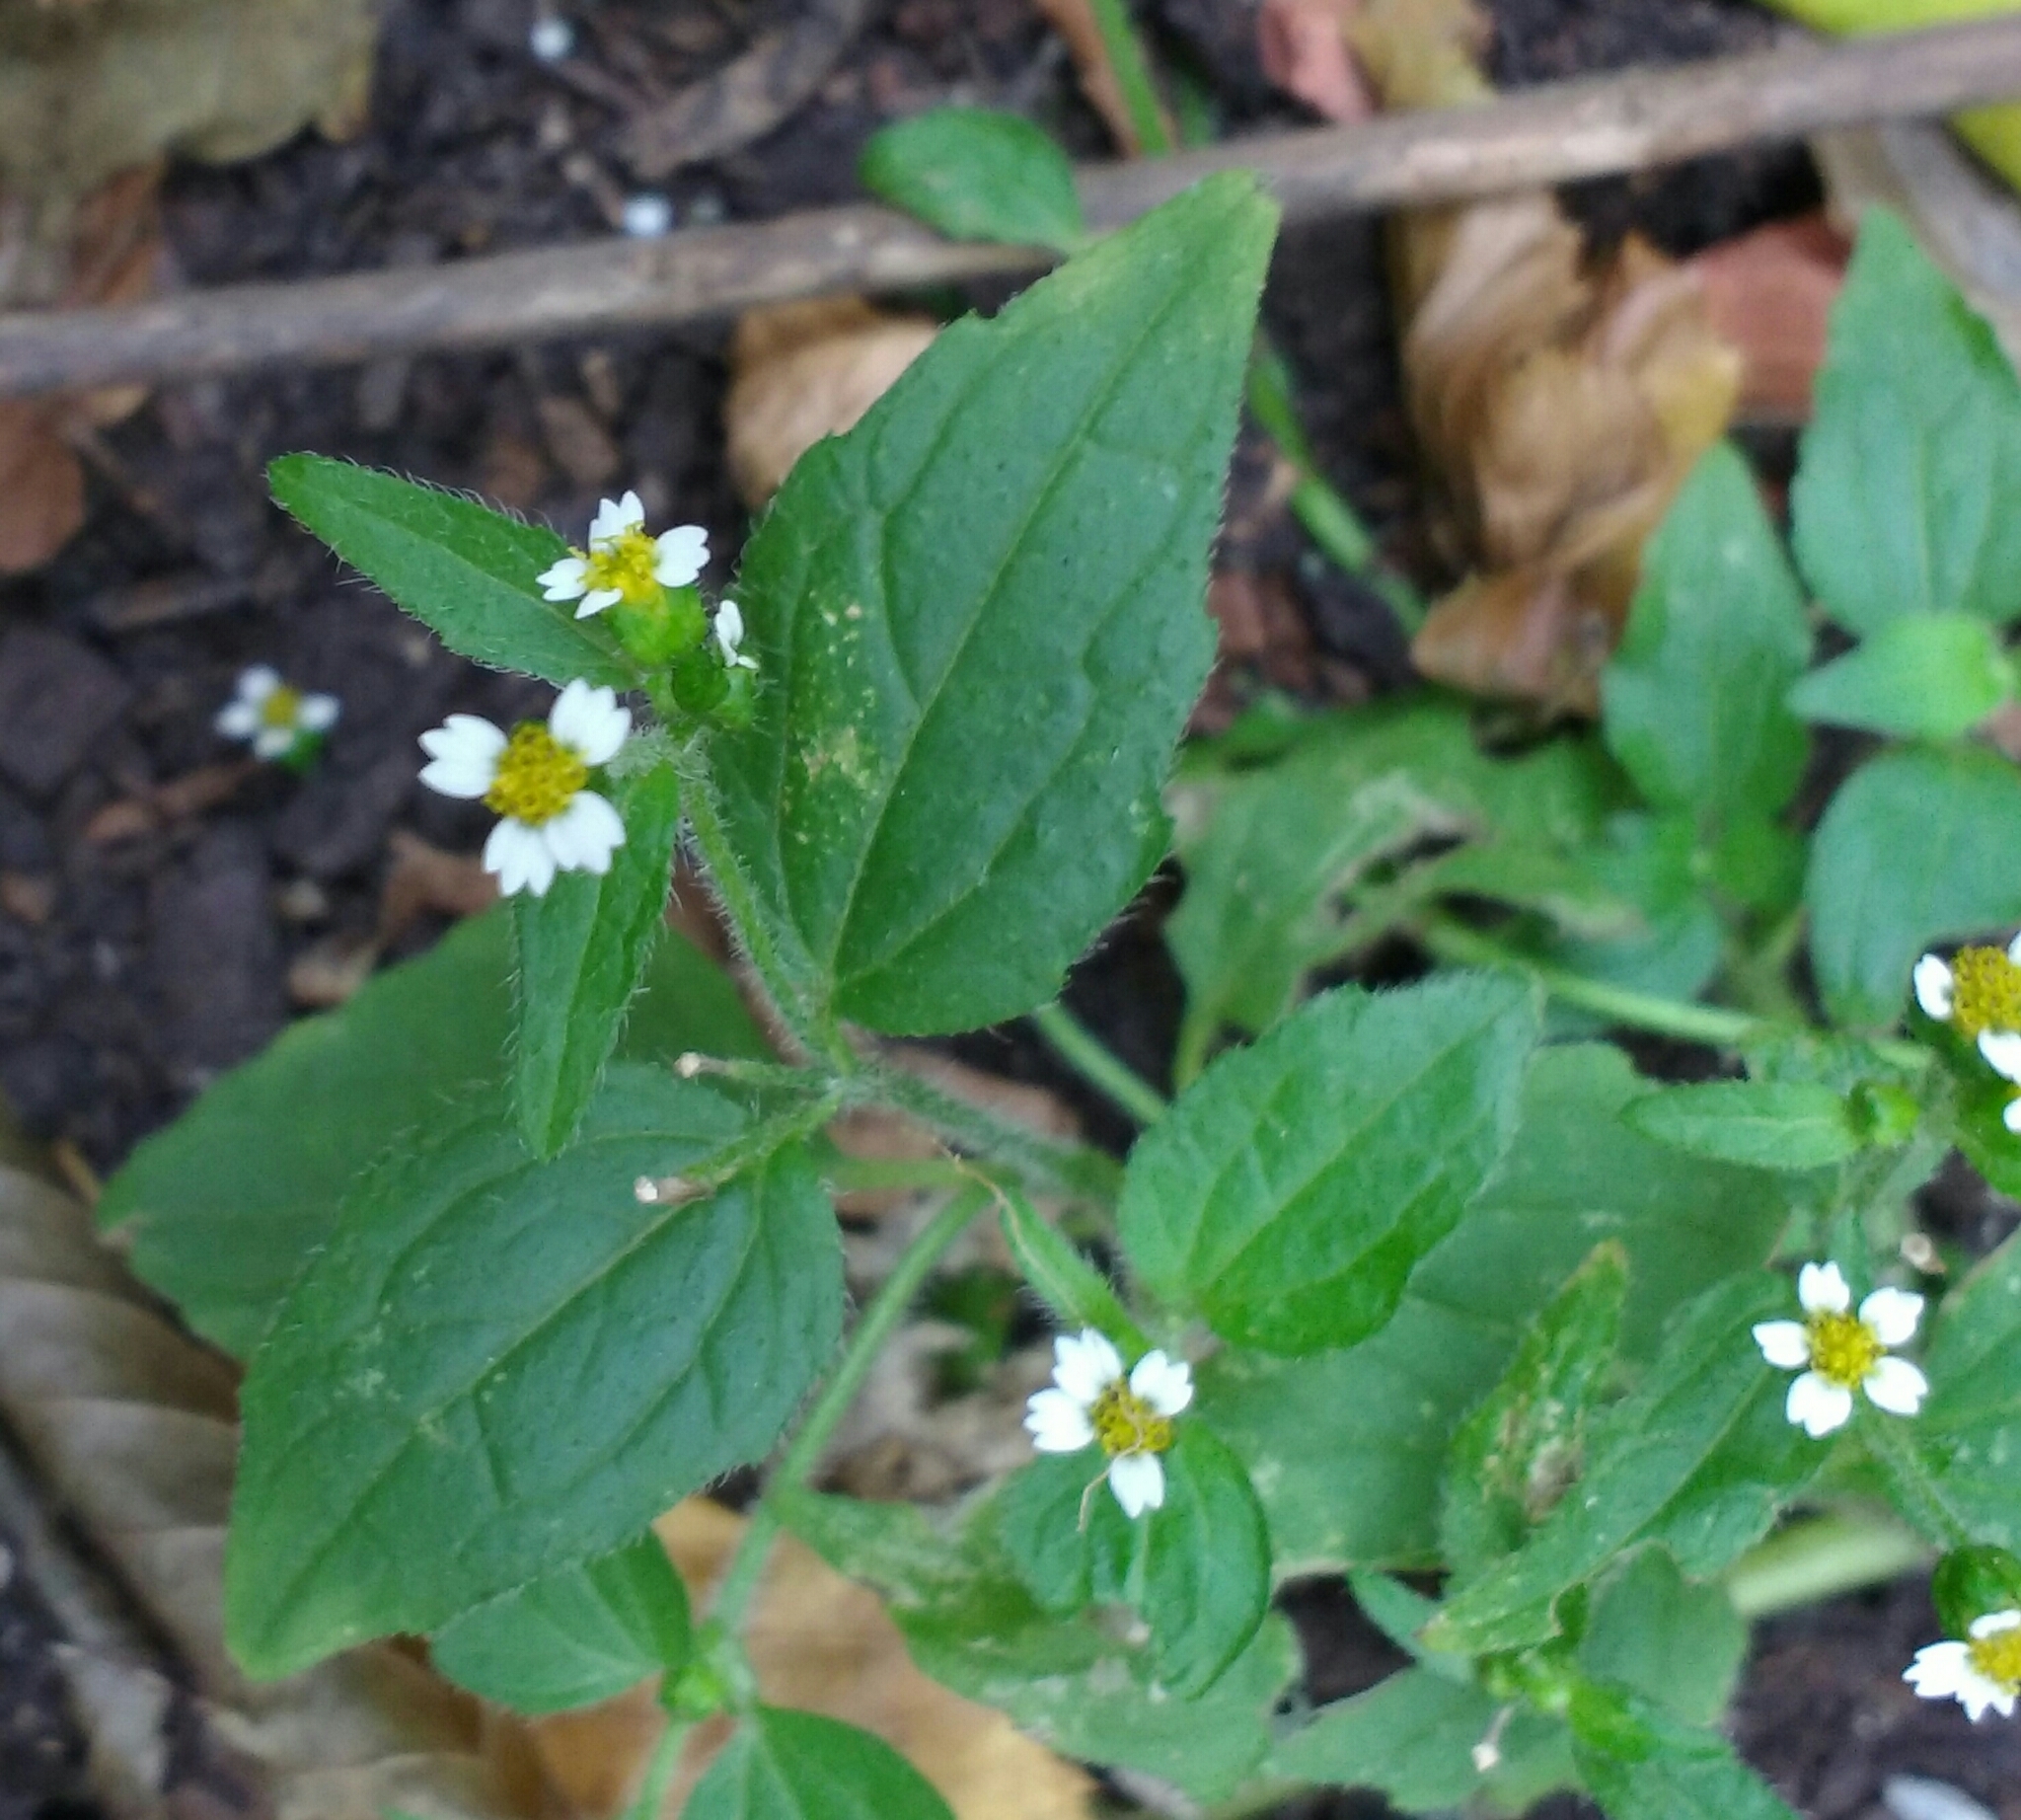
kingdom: Plantae
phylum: Tracheophyta
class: Magnoliopsida
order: Asterales
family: Asteraceae
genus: Galinsoga
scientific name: Galinsoga quadriradiata
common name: Shaggy soldier
